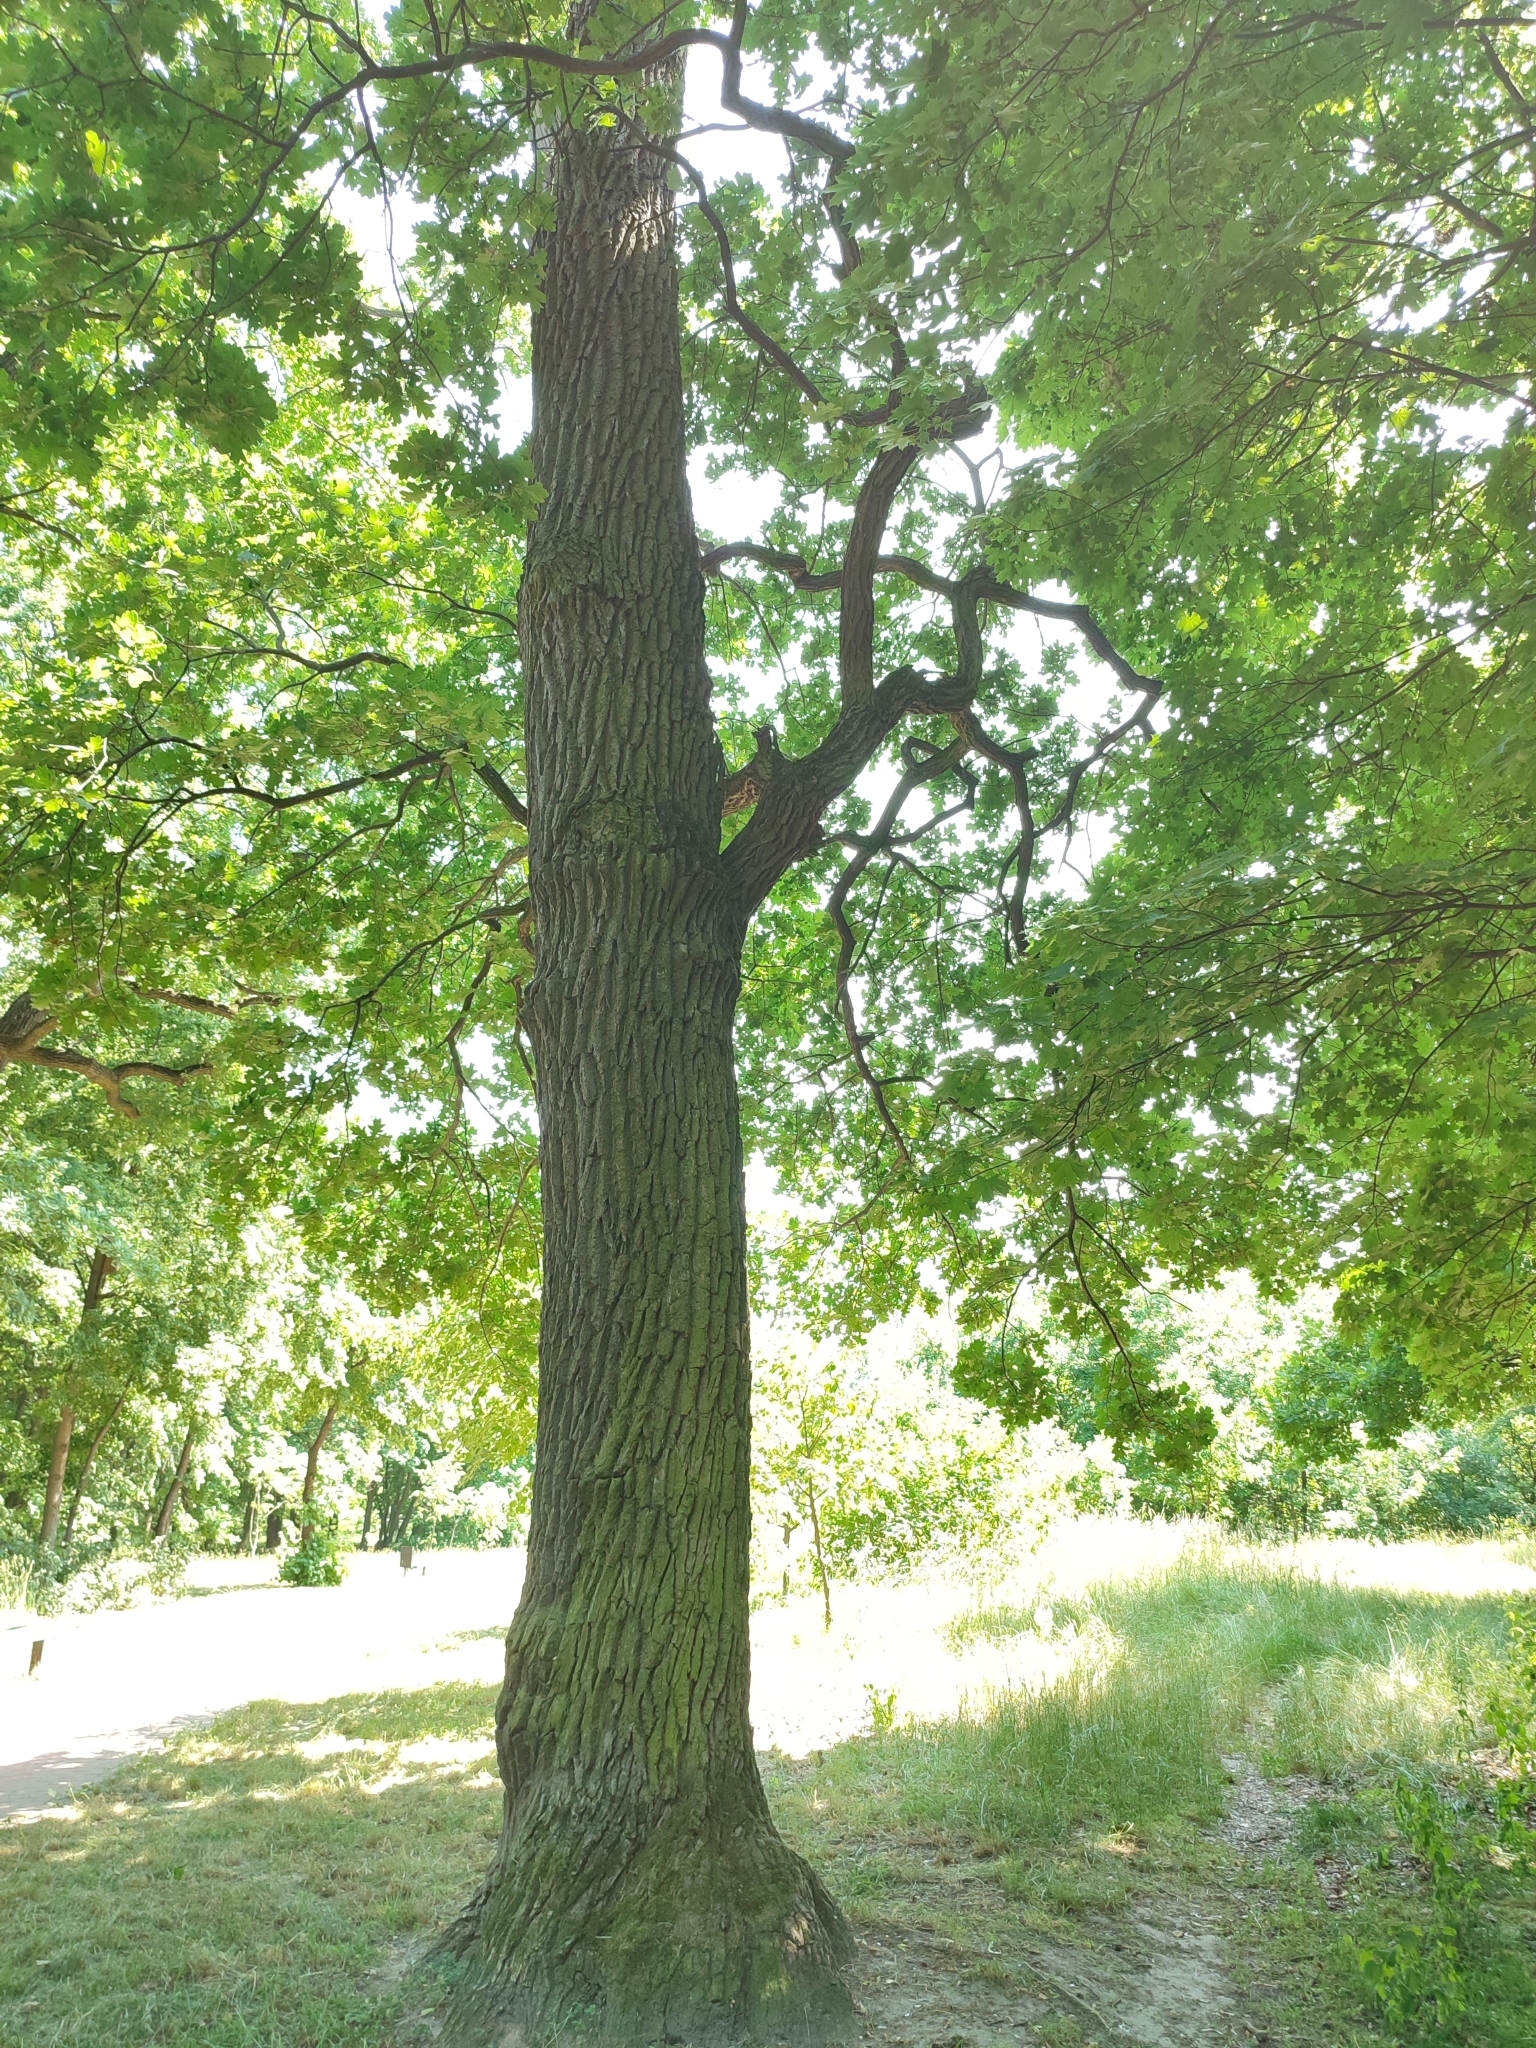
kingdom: Plantae
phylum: Tracheophyta
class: Magnoliopsida
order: Fagales
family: Fagaceae
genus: Quercus
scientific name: Quercus robur
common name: Pedunculate oak
